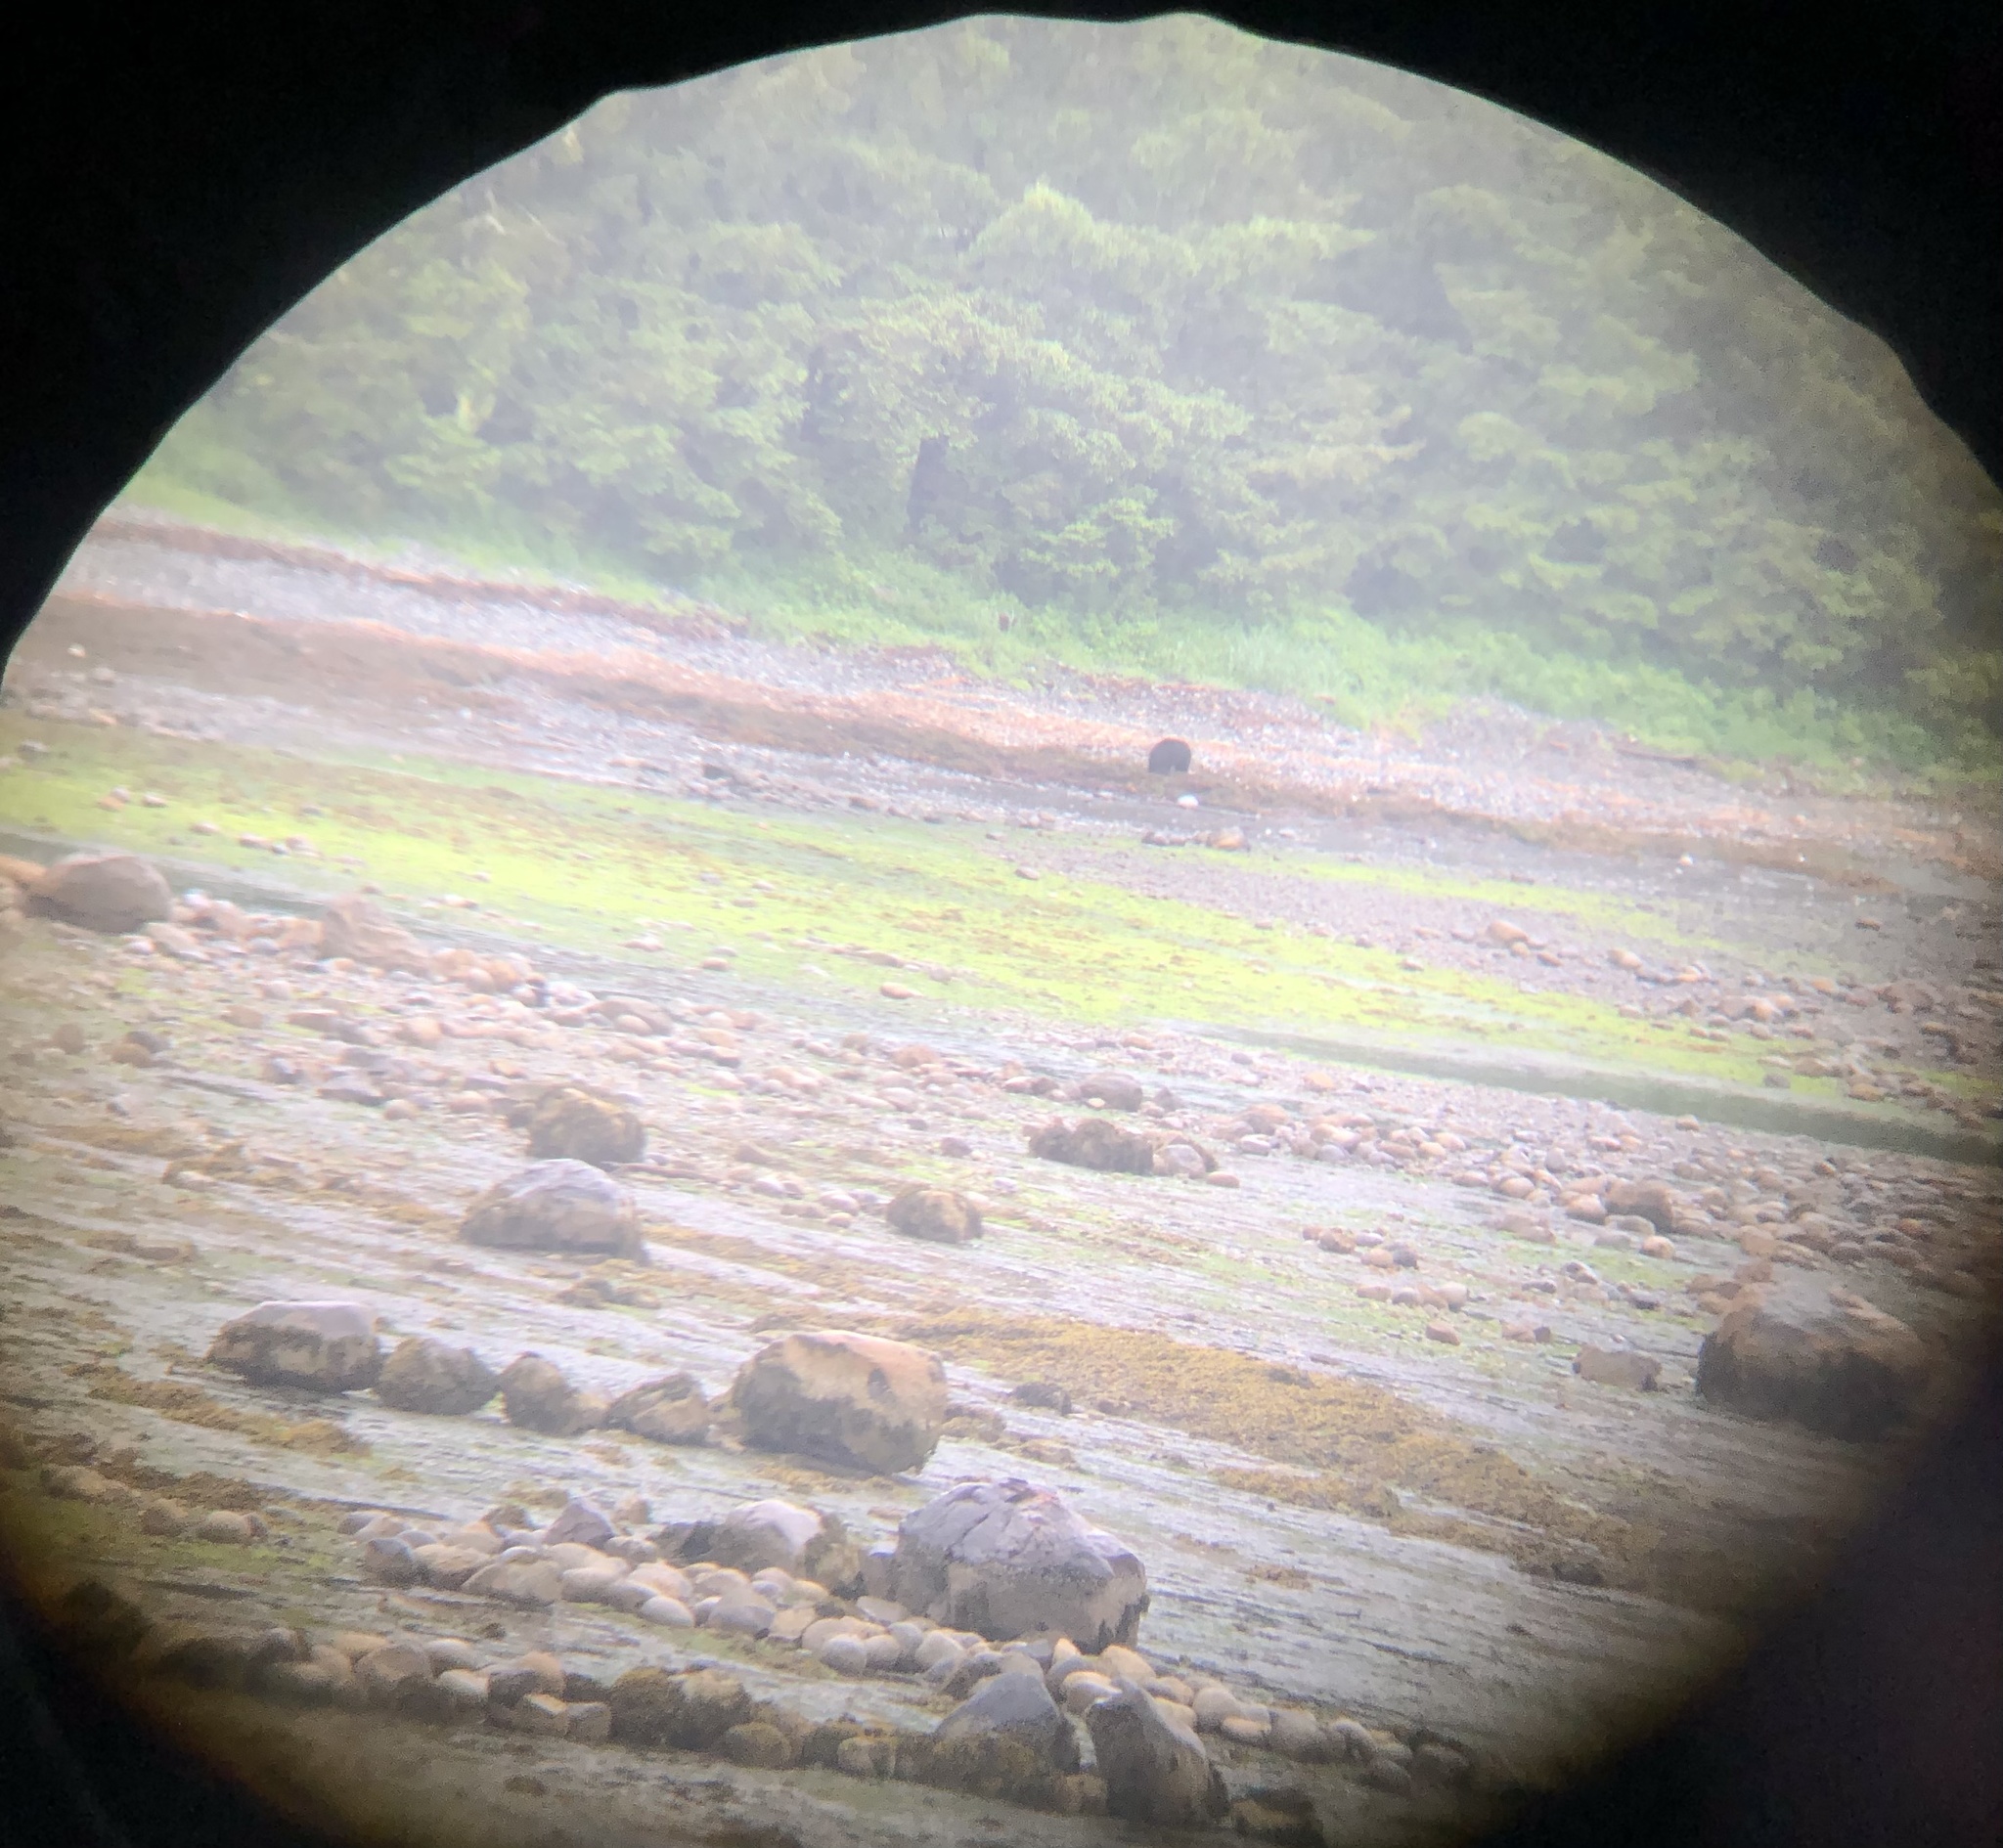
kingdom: Animalia
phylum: Chordata
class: Mammalia
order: Carnivora
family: Ursidae
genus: Ursus
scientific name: Ursus americanus
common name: American black bear
